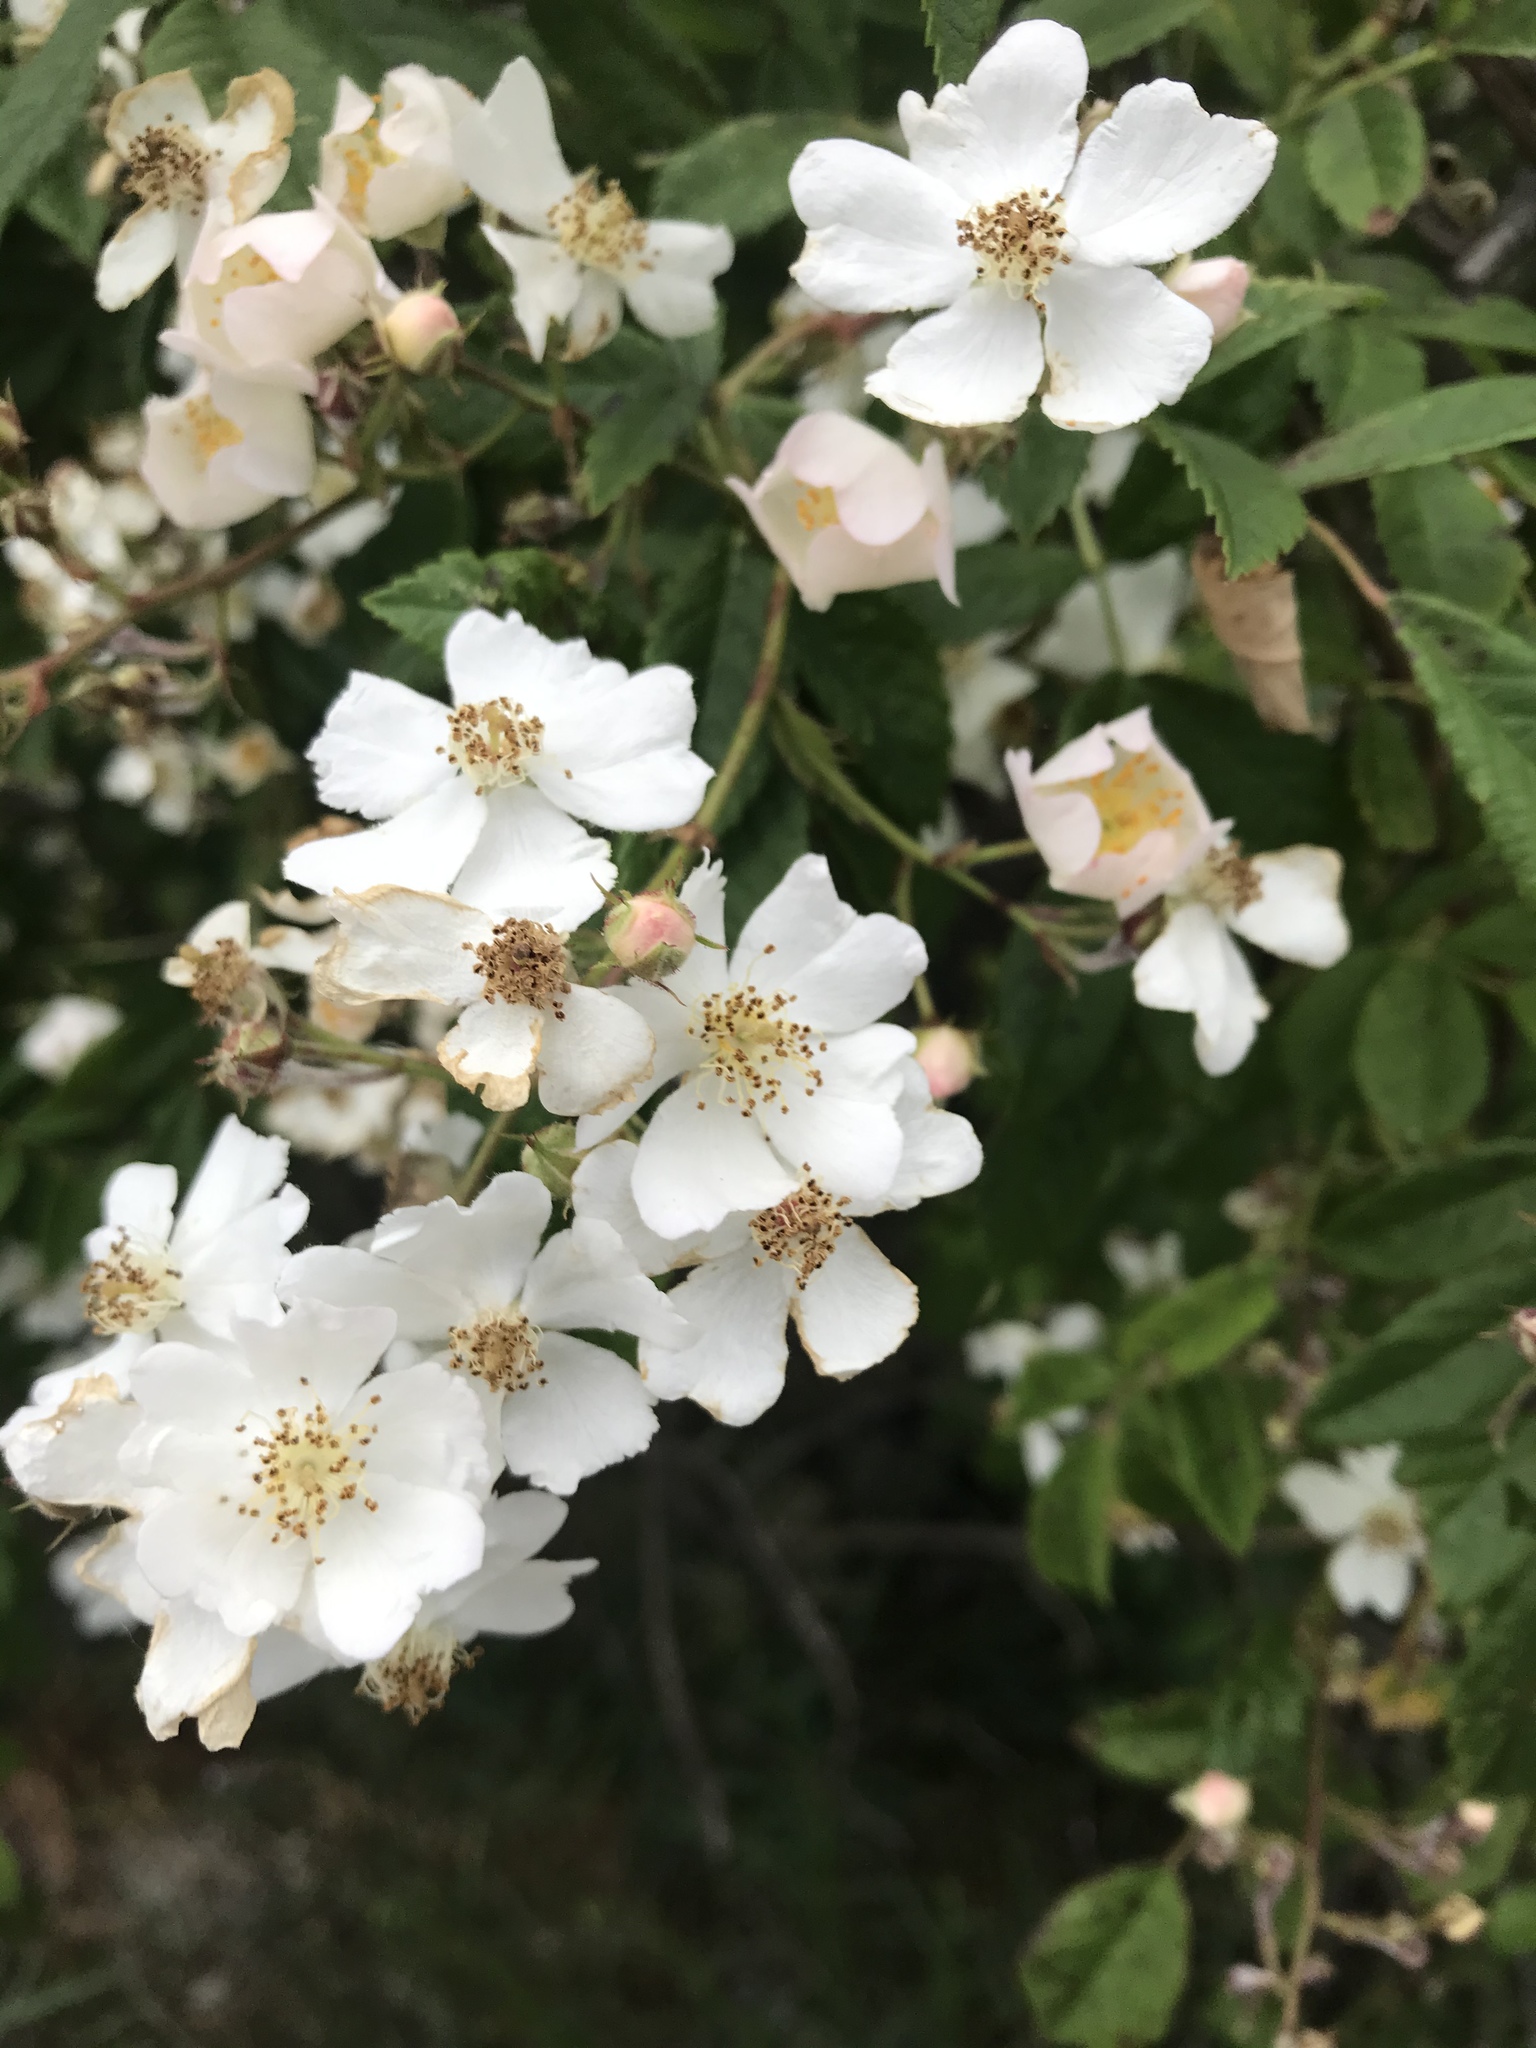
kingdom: Plantae
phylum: Tracheophyta
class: Magnoliopsida
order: Rosales
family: Rosaceae
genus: Rosa
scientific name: Rosa multiflora
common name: Multiflora rose
